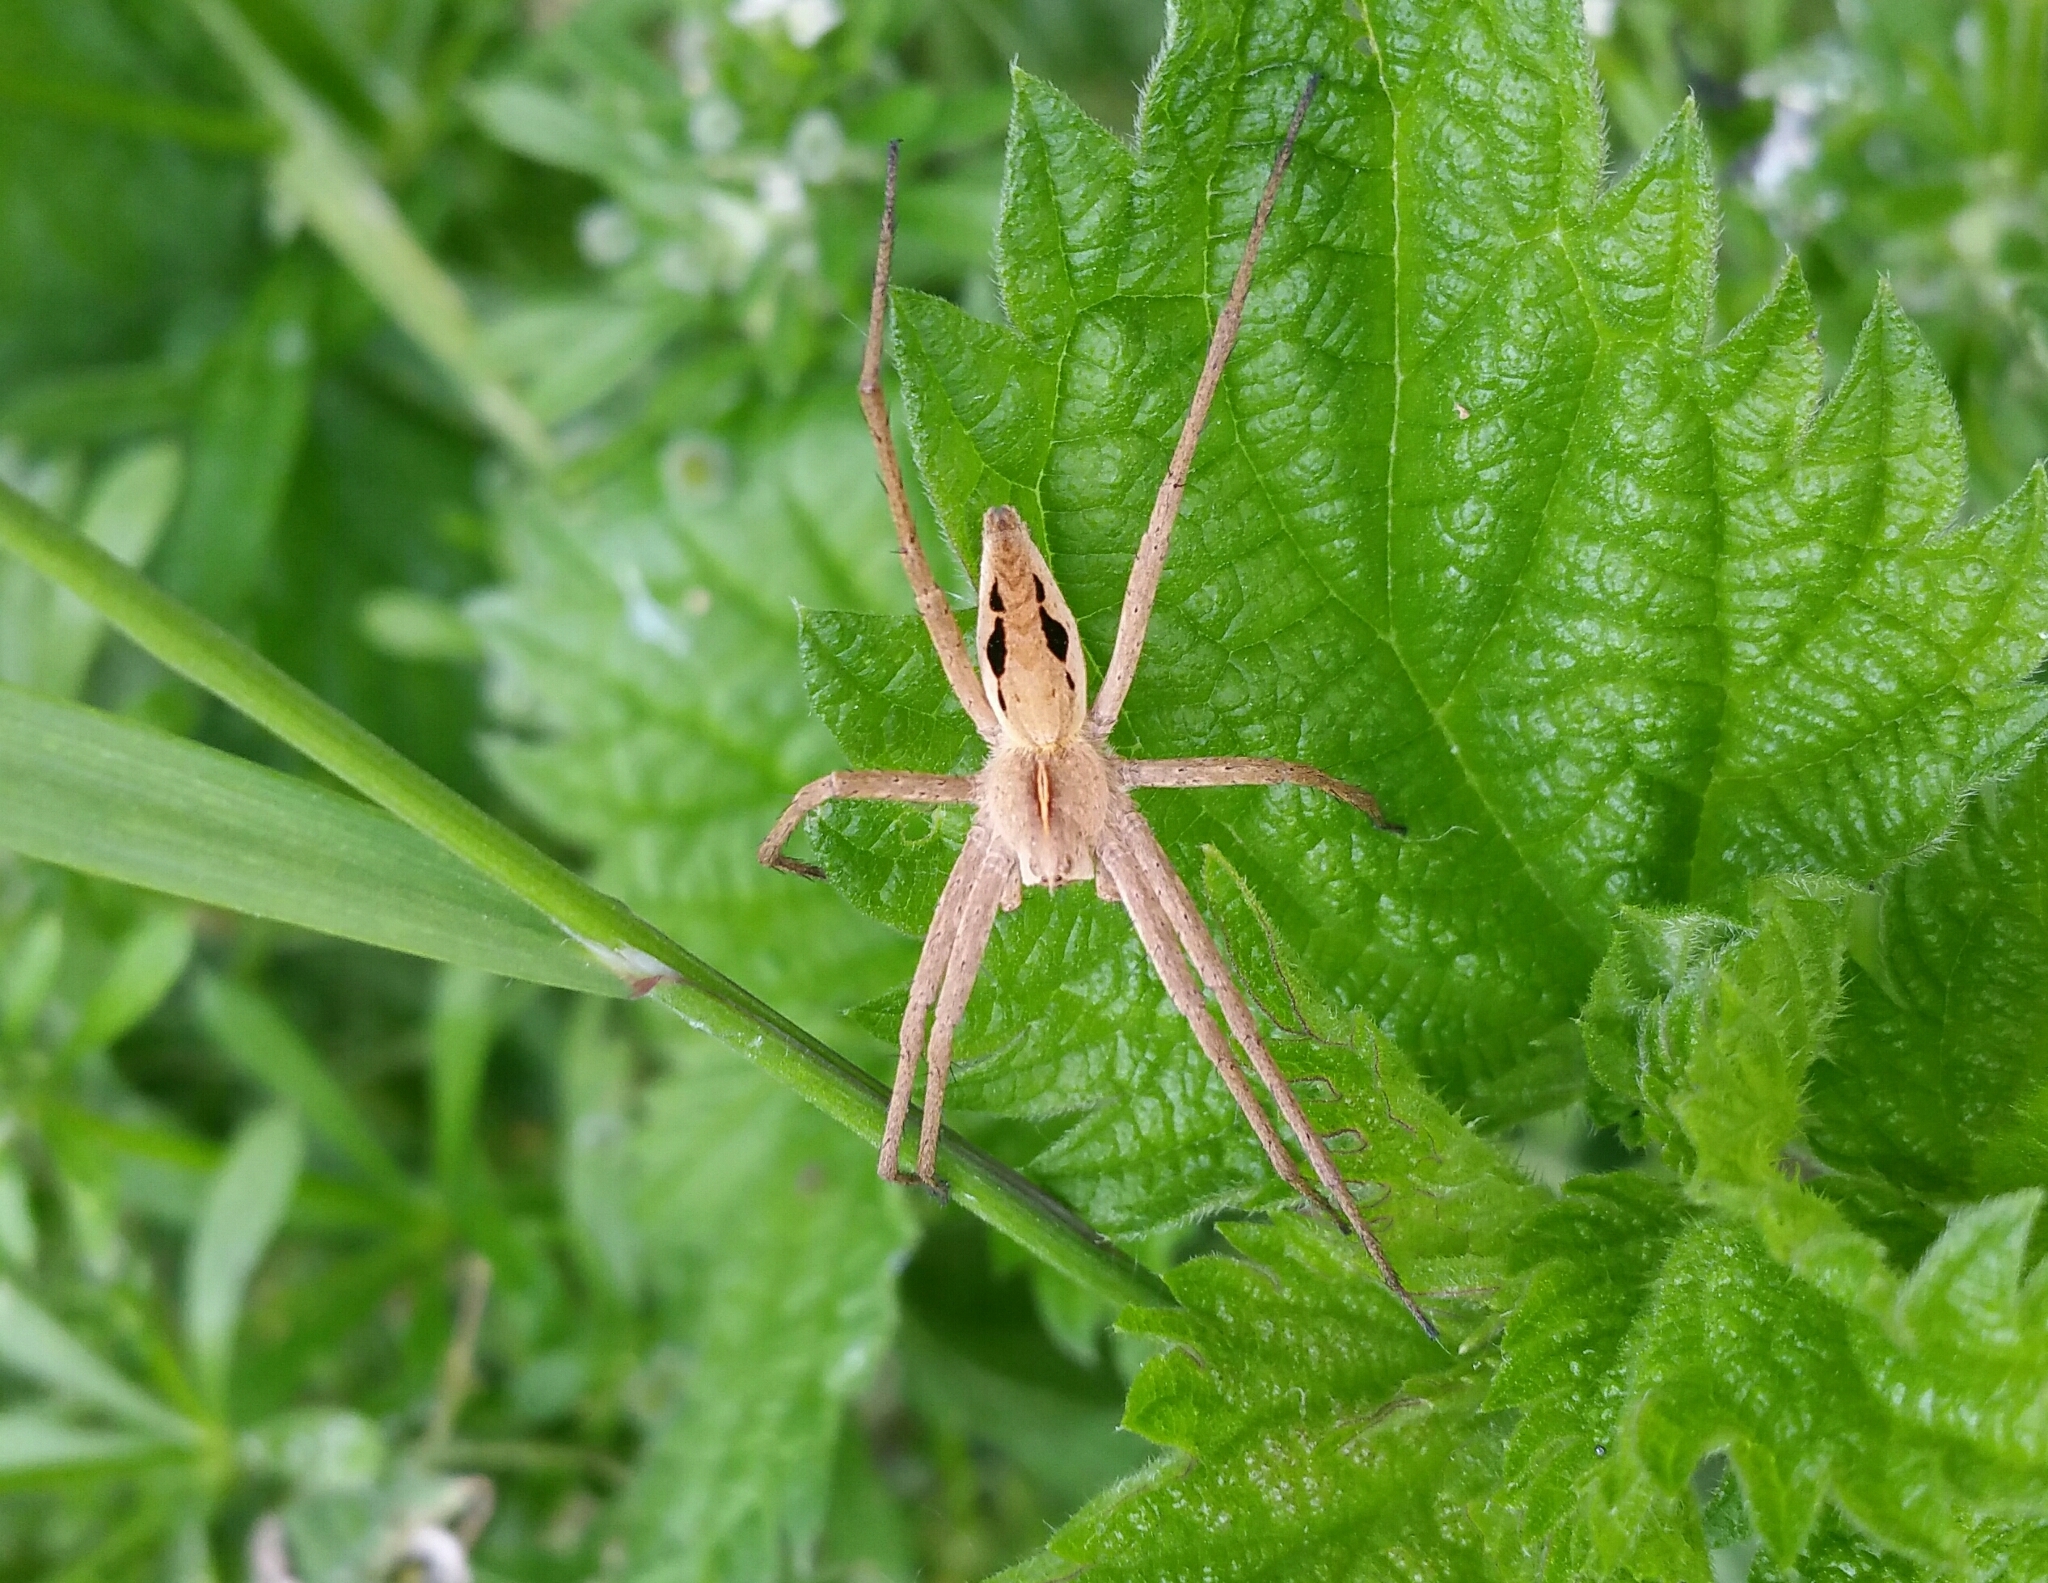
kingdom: Animalia
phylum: Arthropoda
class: Arachnida
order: Araneae
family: Pisauridae
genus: Pisaura
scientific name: Pisaura mirabilis
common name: Tent spider
